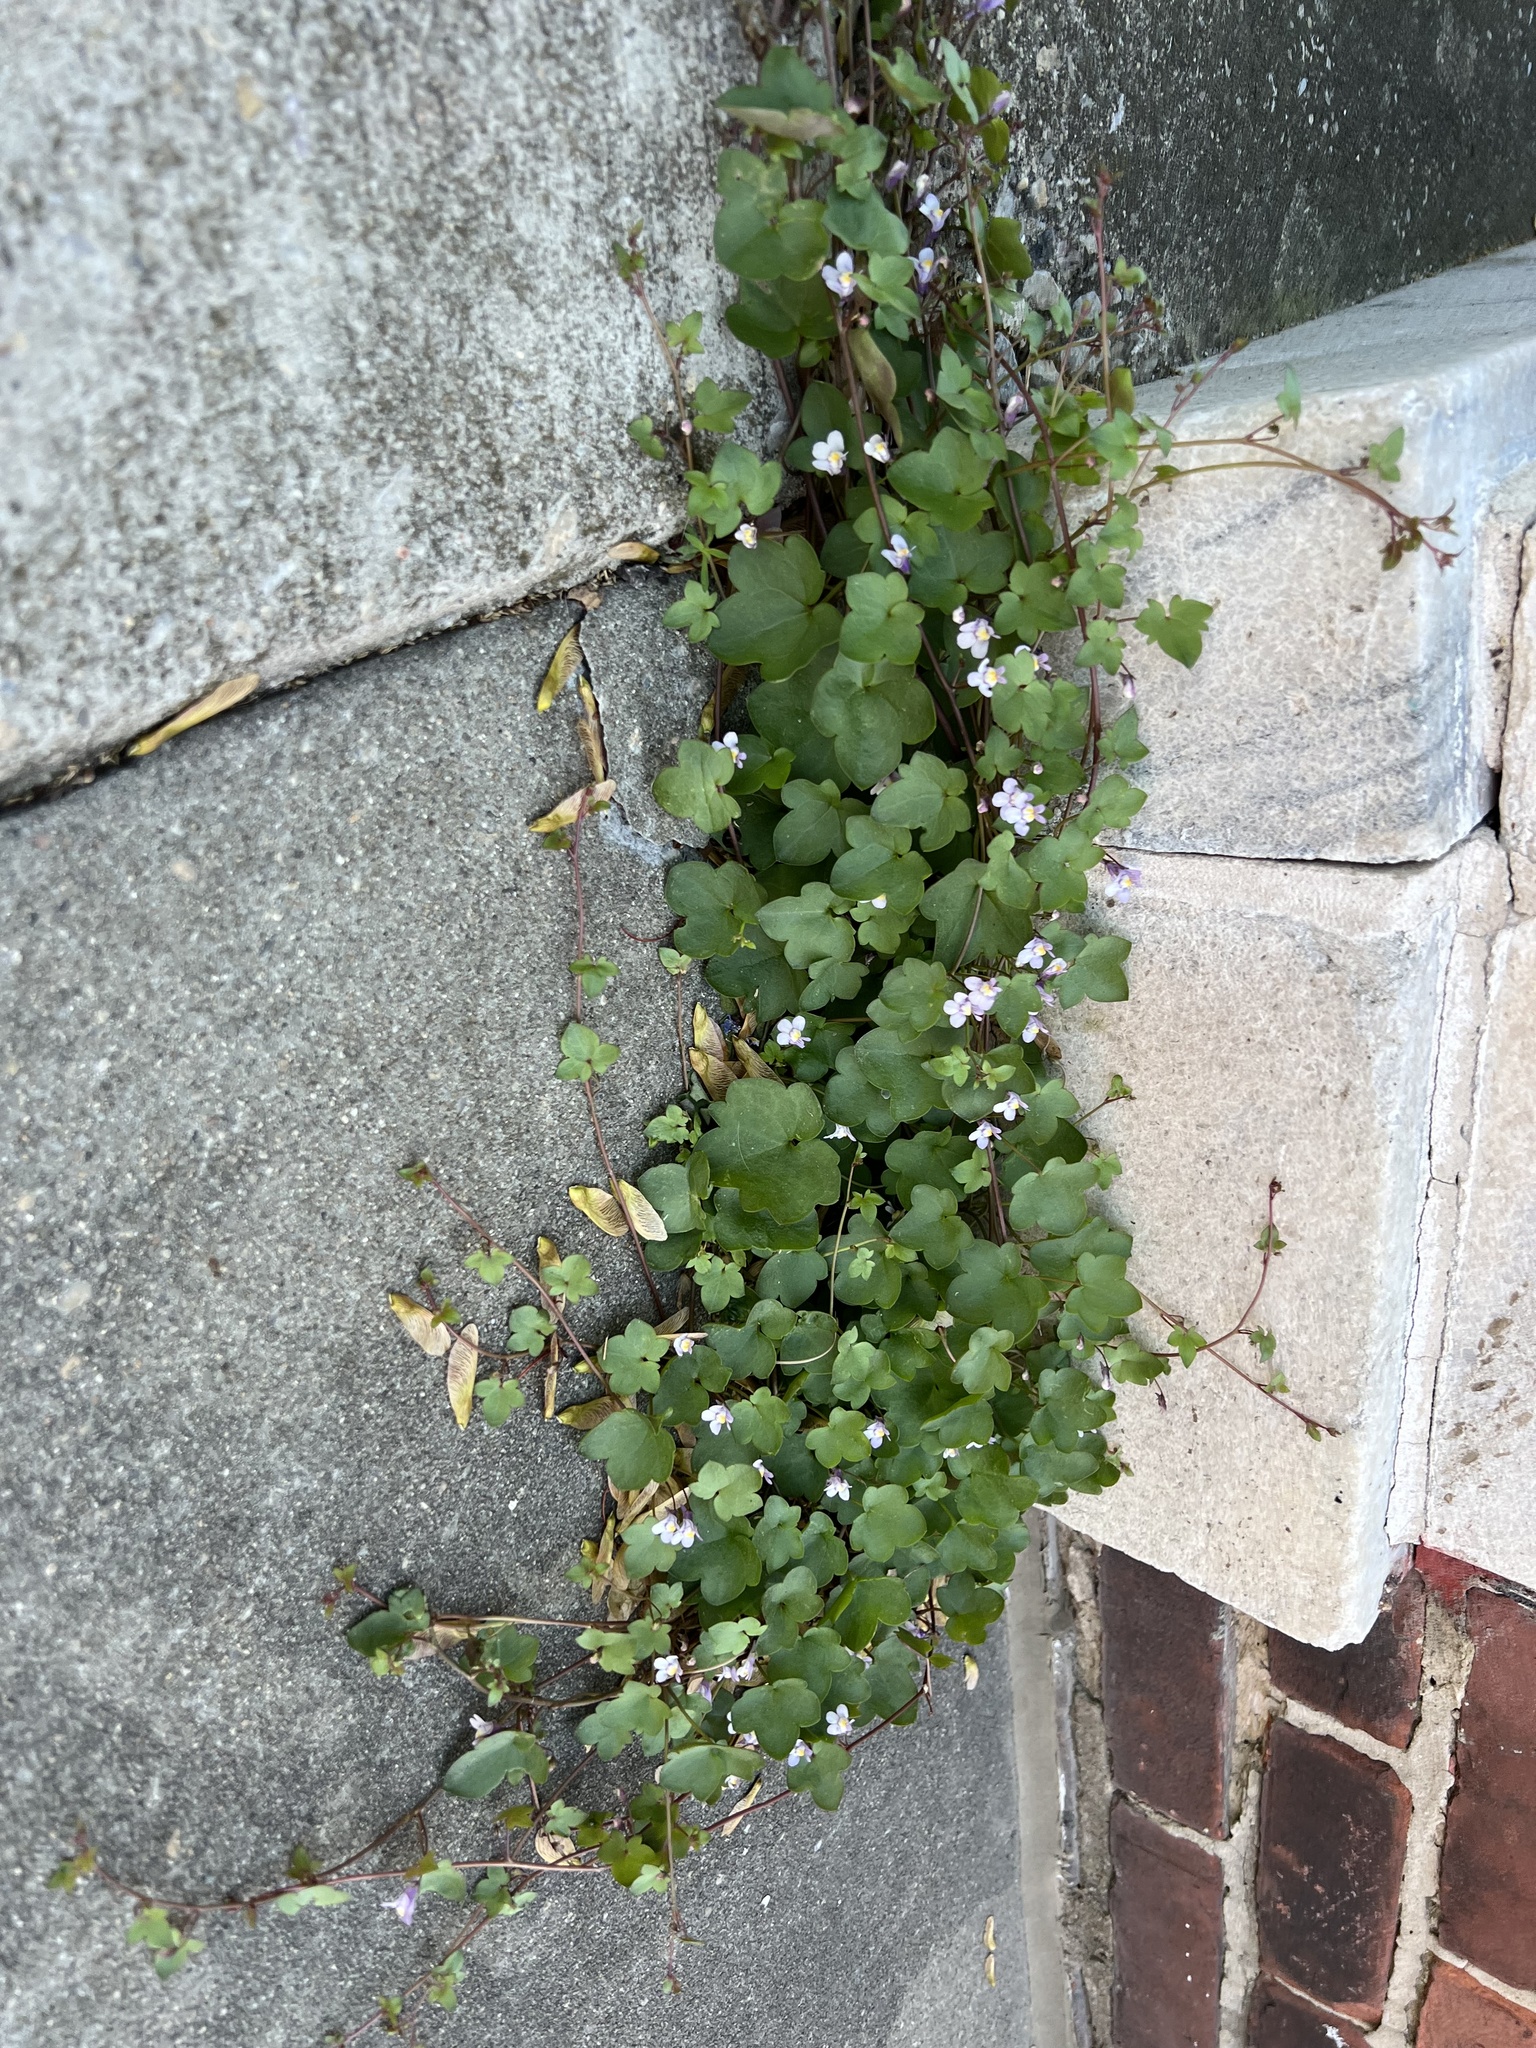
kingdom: Plantae
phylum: Tracheophyta
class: Magnoliopsida
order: Lamiales
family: Plantaginaceae
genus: Cymbalaria
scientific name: Cymbalaria muralis
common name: Ivy-leaved toadflax
